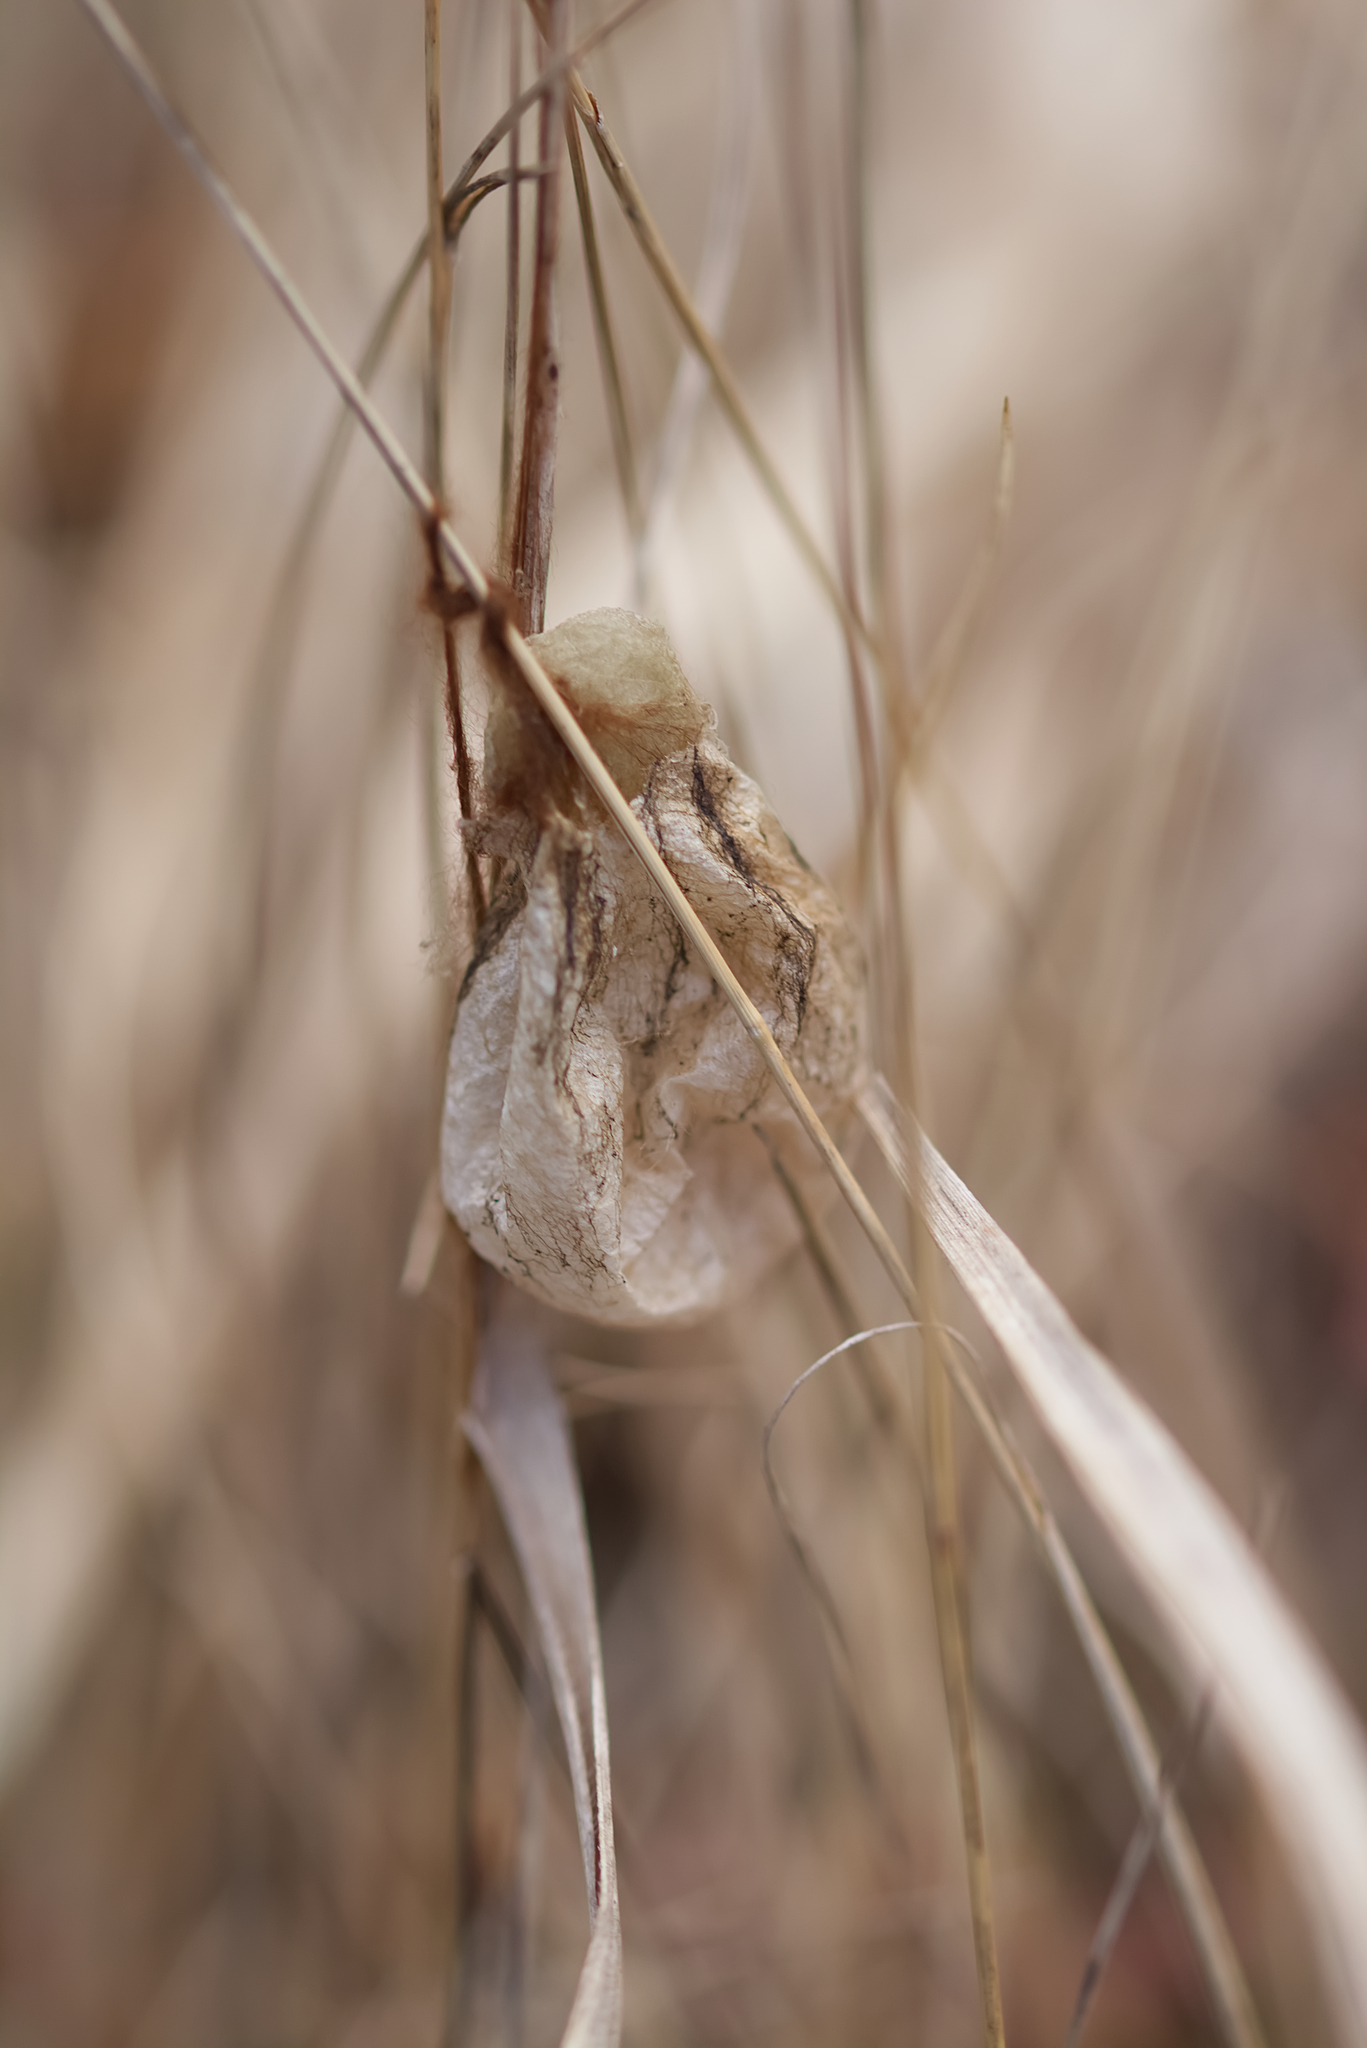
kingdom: Animalia
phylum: Arthropoda
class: Arachnida
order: Araneae
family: Araneidae
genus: Argiope
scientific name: Argiope bruennichi
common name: Wasp spider
